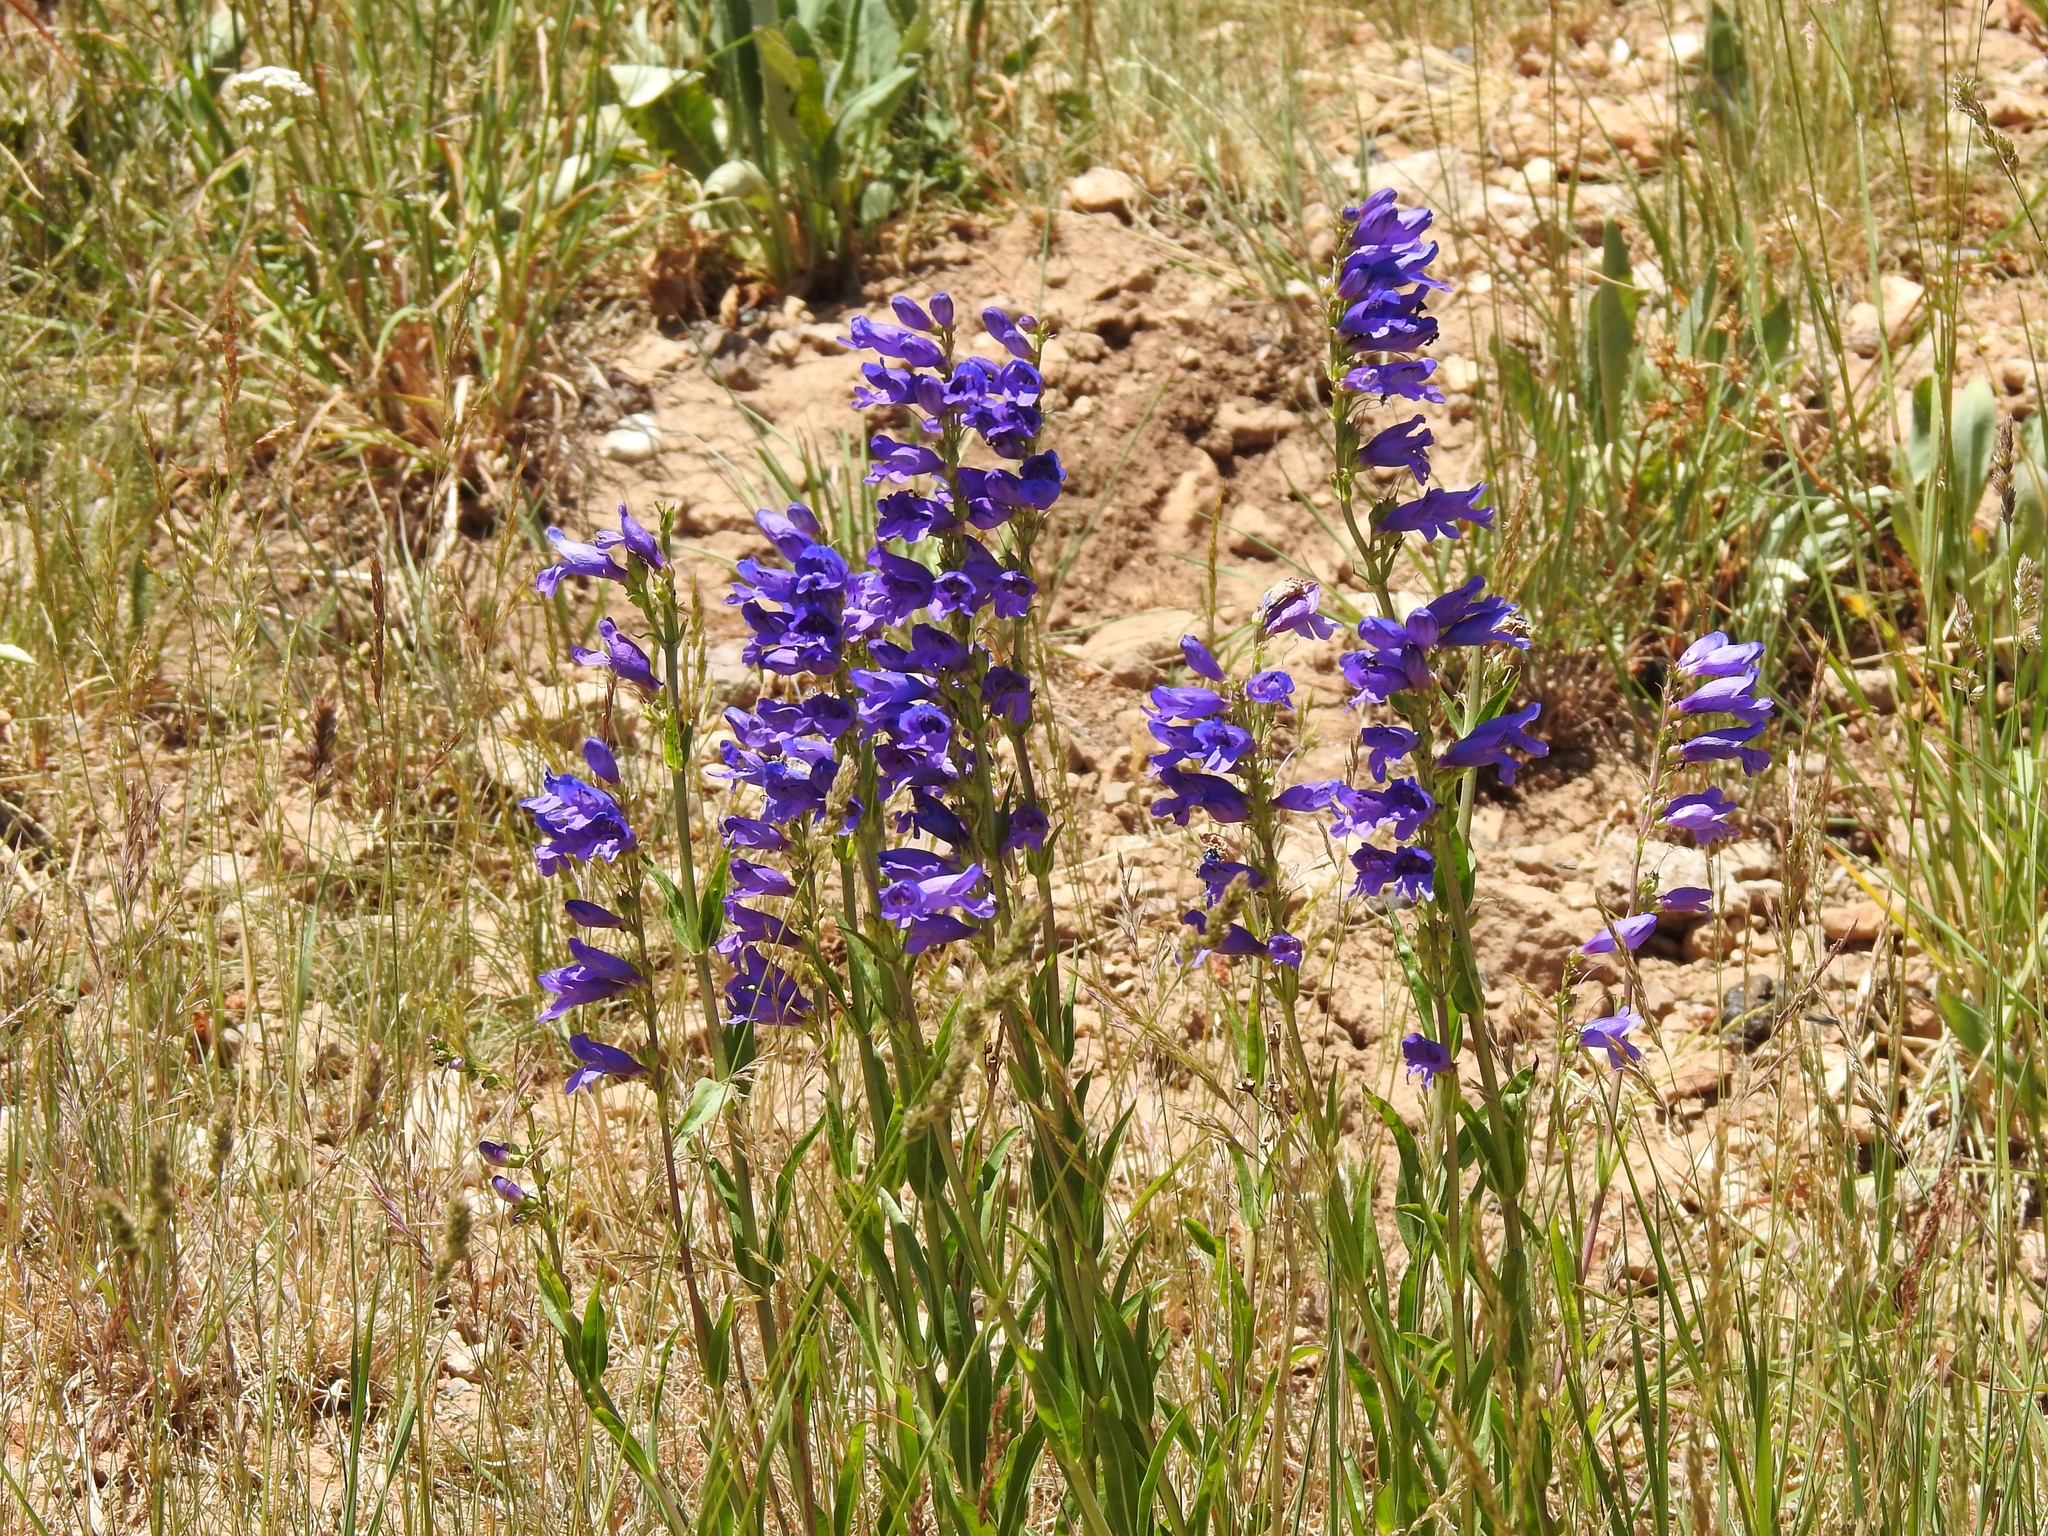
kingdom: Plantae
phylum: Tracheophyta
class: Magnoliopsida
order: Lamiales
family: Plantaginaceae
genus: Penstemon
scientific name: Penstemon strictus
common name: Rocky mountain penstemon
